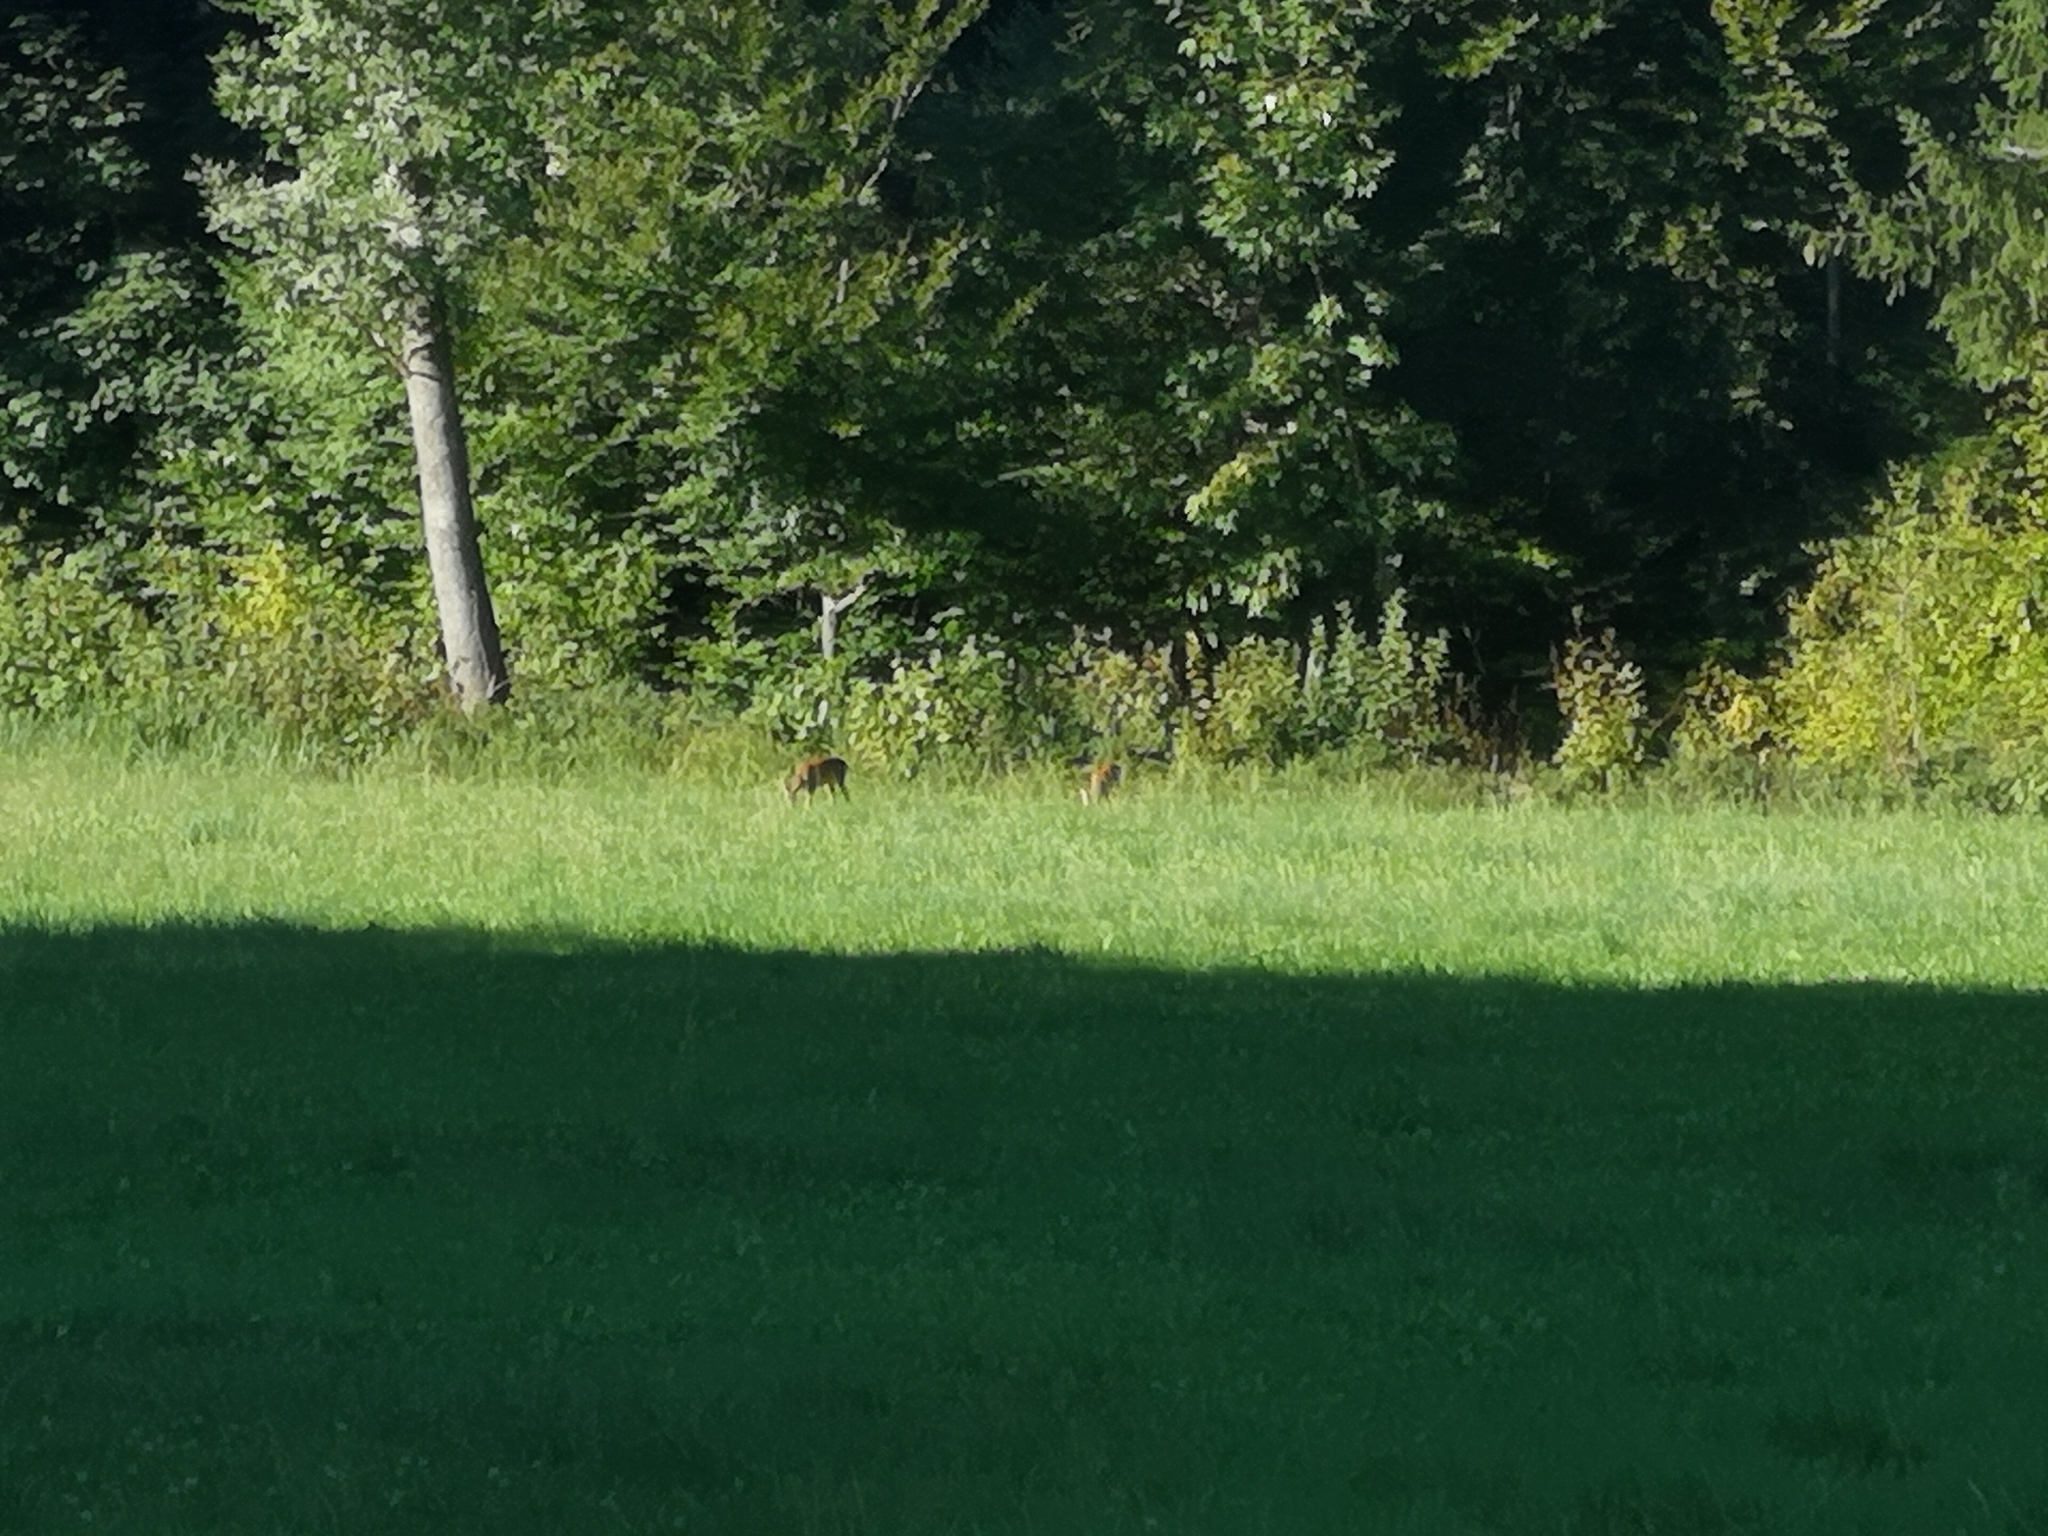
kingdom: Animalia
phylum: Chordata
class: Mammalia
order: Artiodactyla
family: Cervidae
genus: Capreolus
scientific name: Capreolus capreolus
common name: Western roe deer
